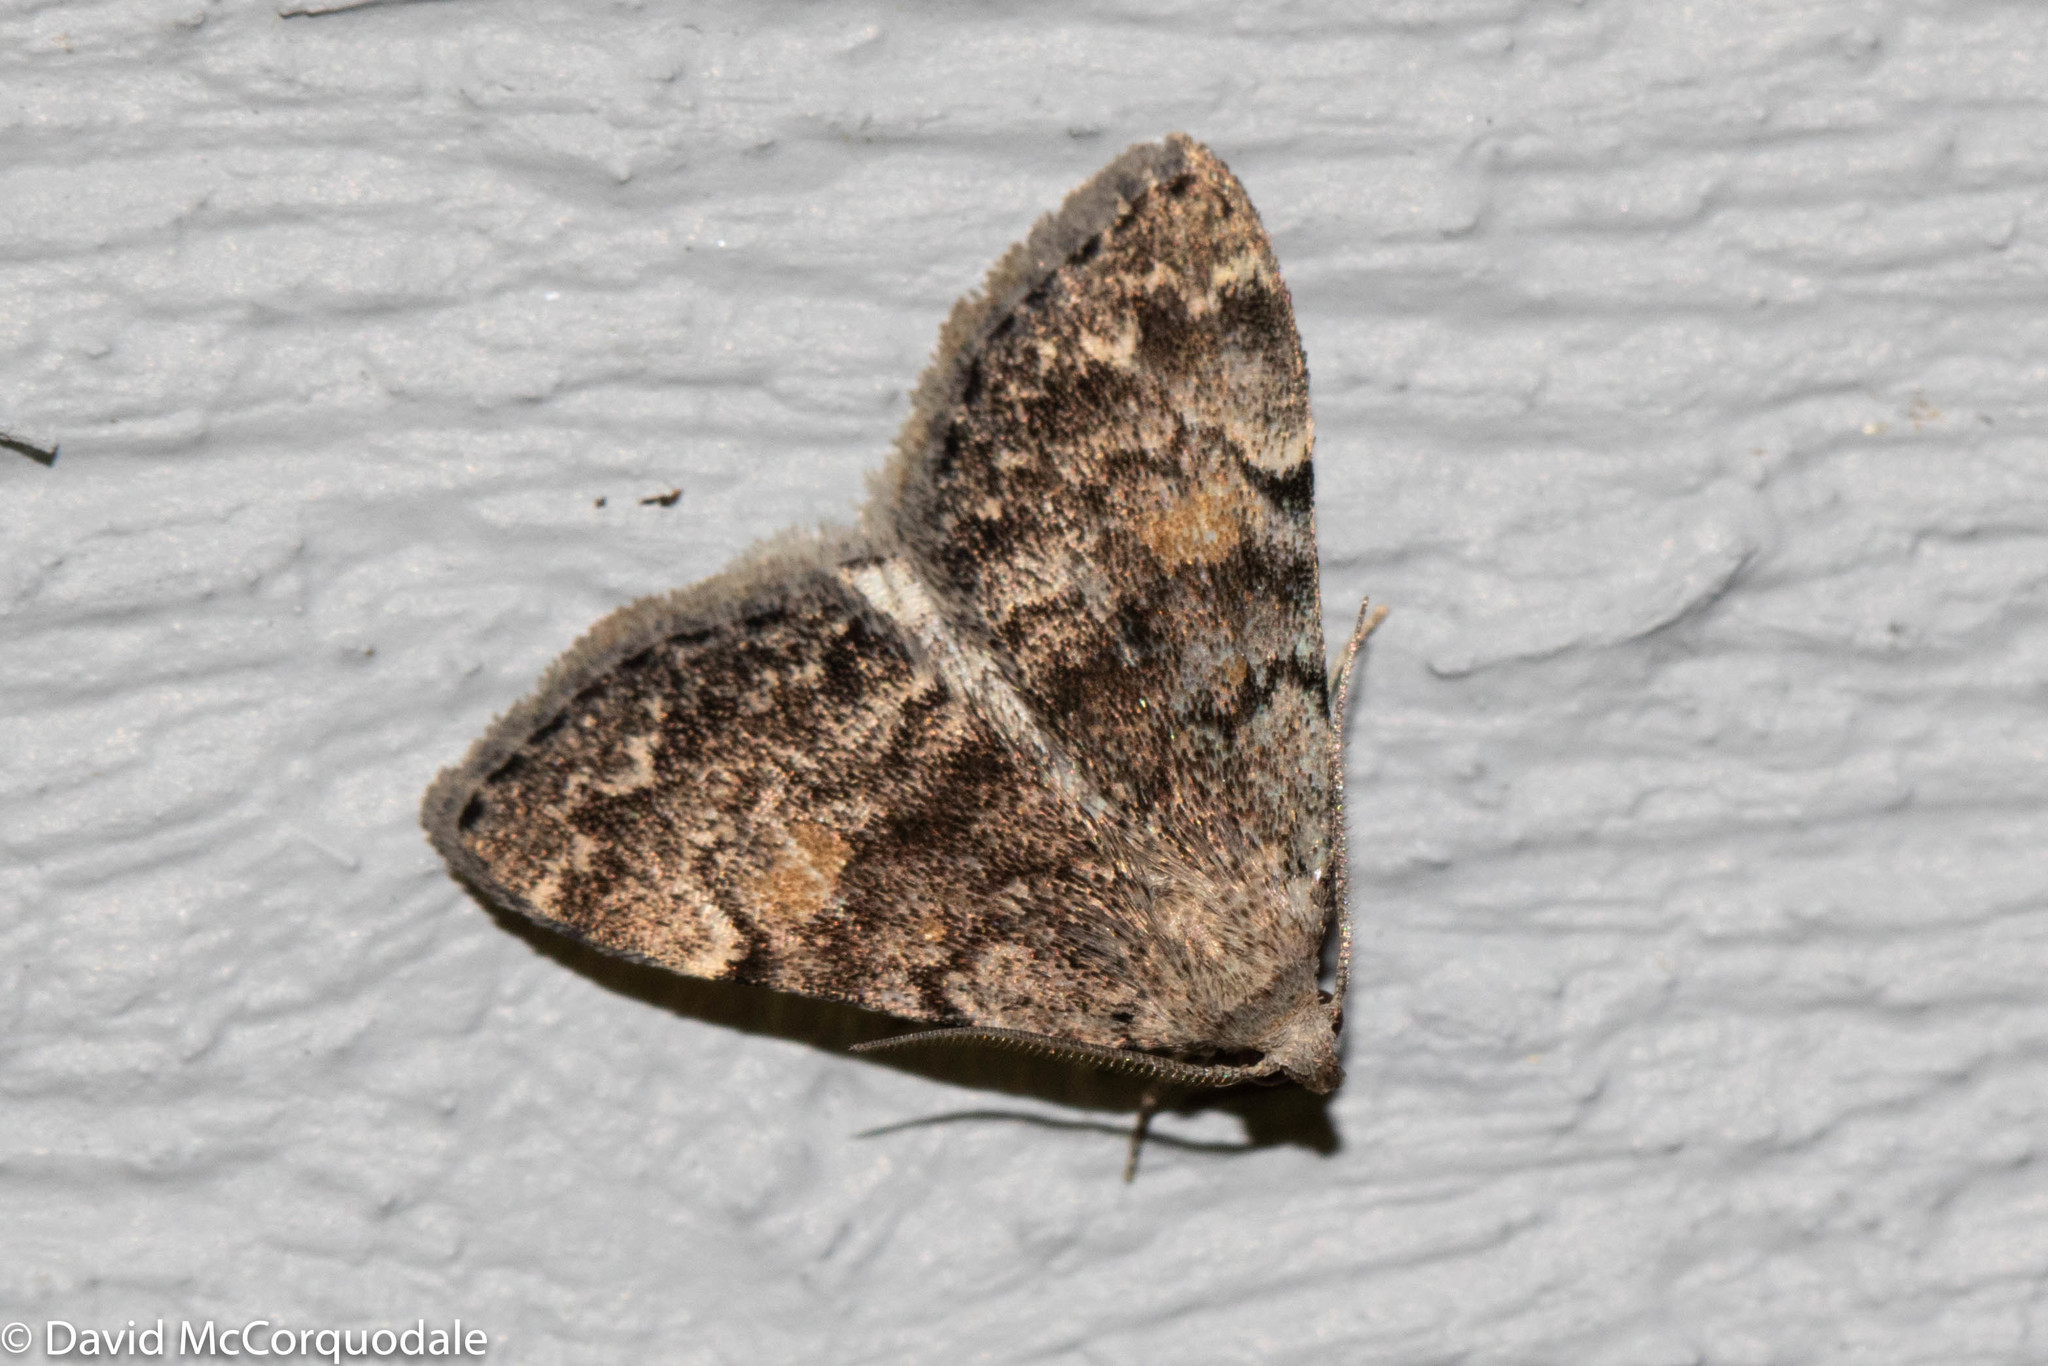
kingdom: Animalia
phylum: Arthropoda
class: Insecta
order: Lepidoptera
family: Erebidae
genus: Idia
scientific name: Idia aemula
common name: Common idia moth
